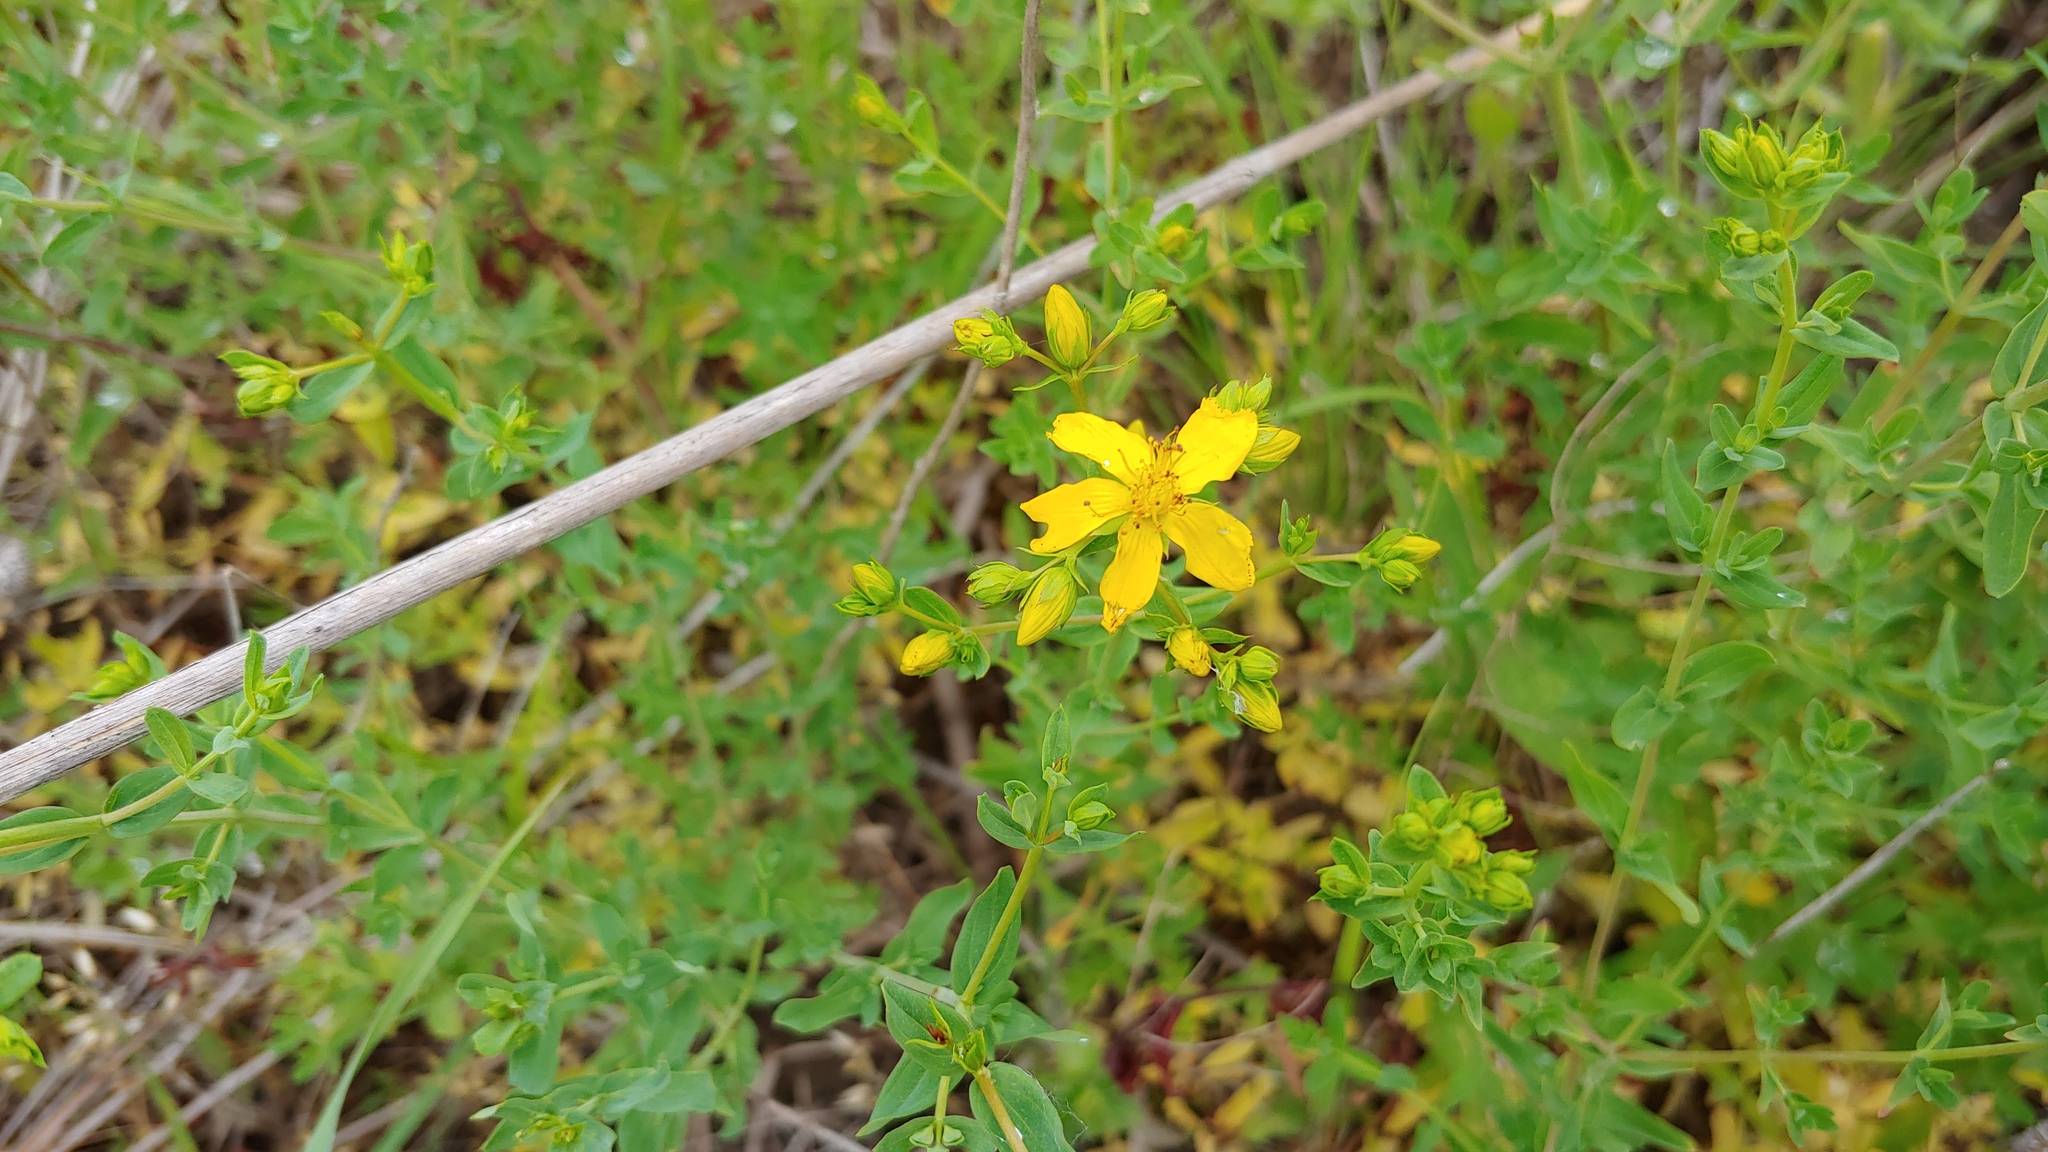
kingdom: Plantae
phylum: Tracheophyta
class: Magnoliopsida
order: Malpighiales
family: Hypericaceae
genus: Hypericum
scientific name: Hypericum perforatum
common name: Common st. johnswort
